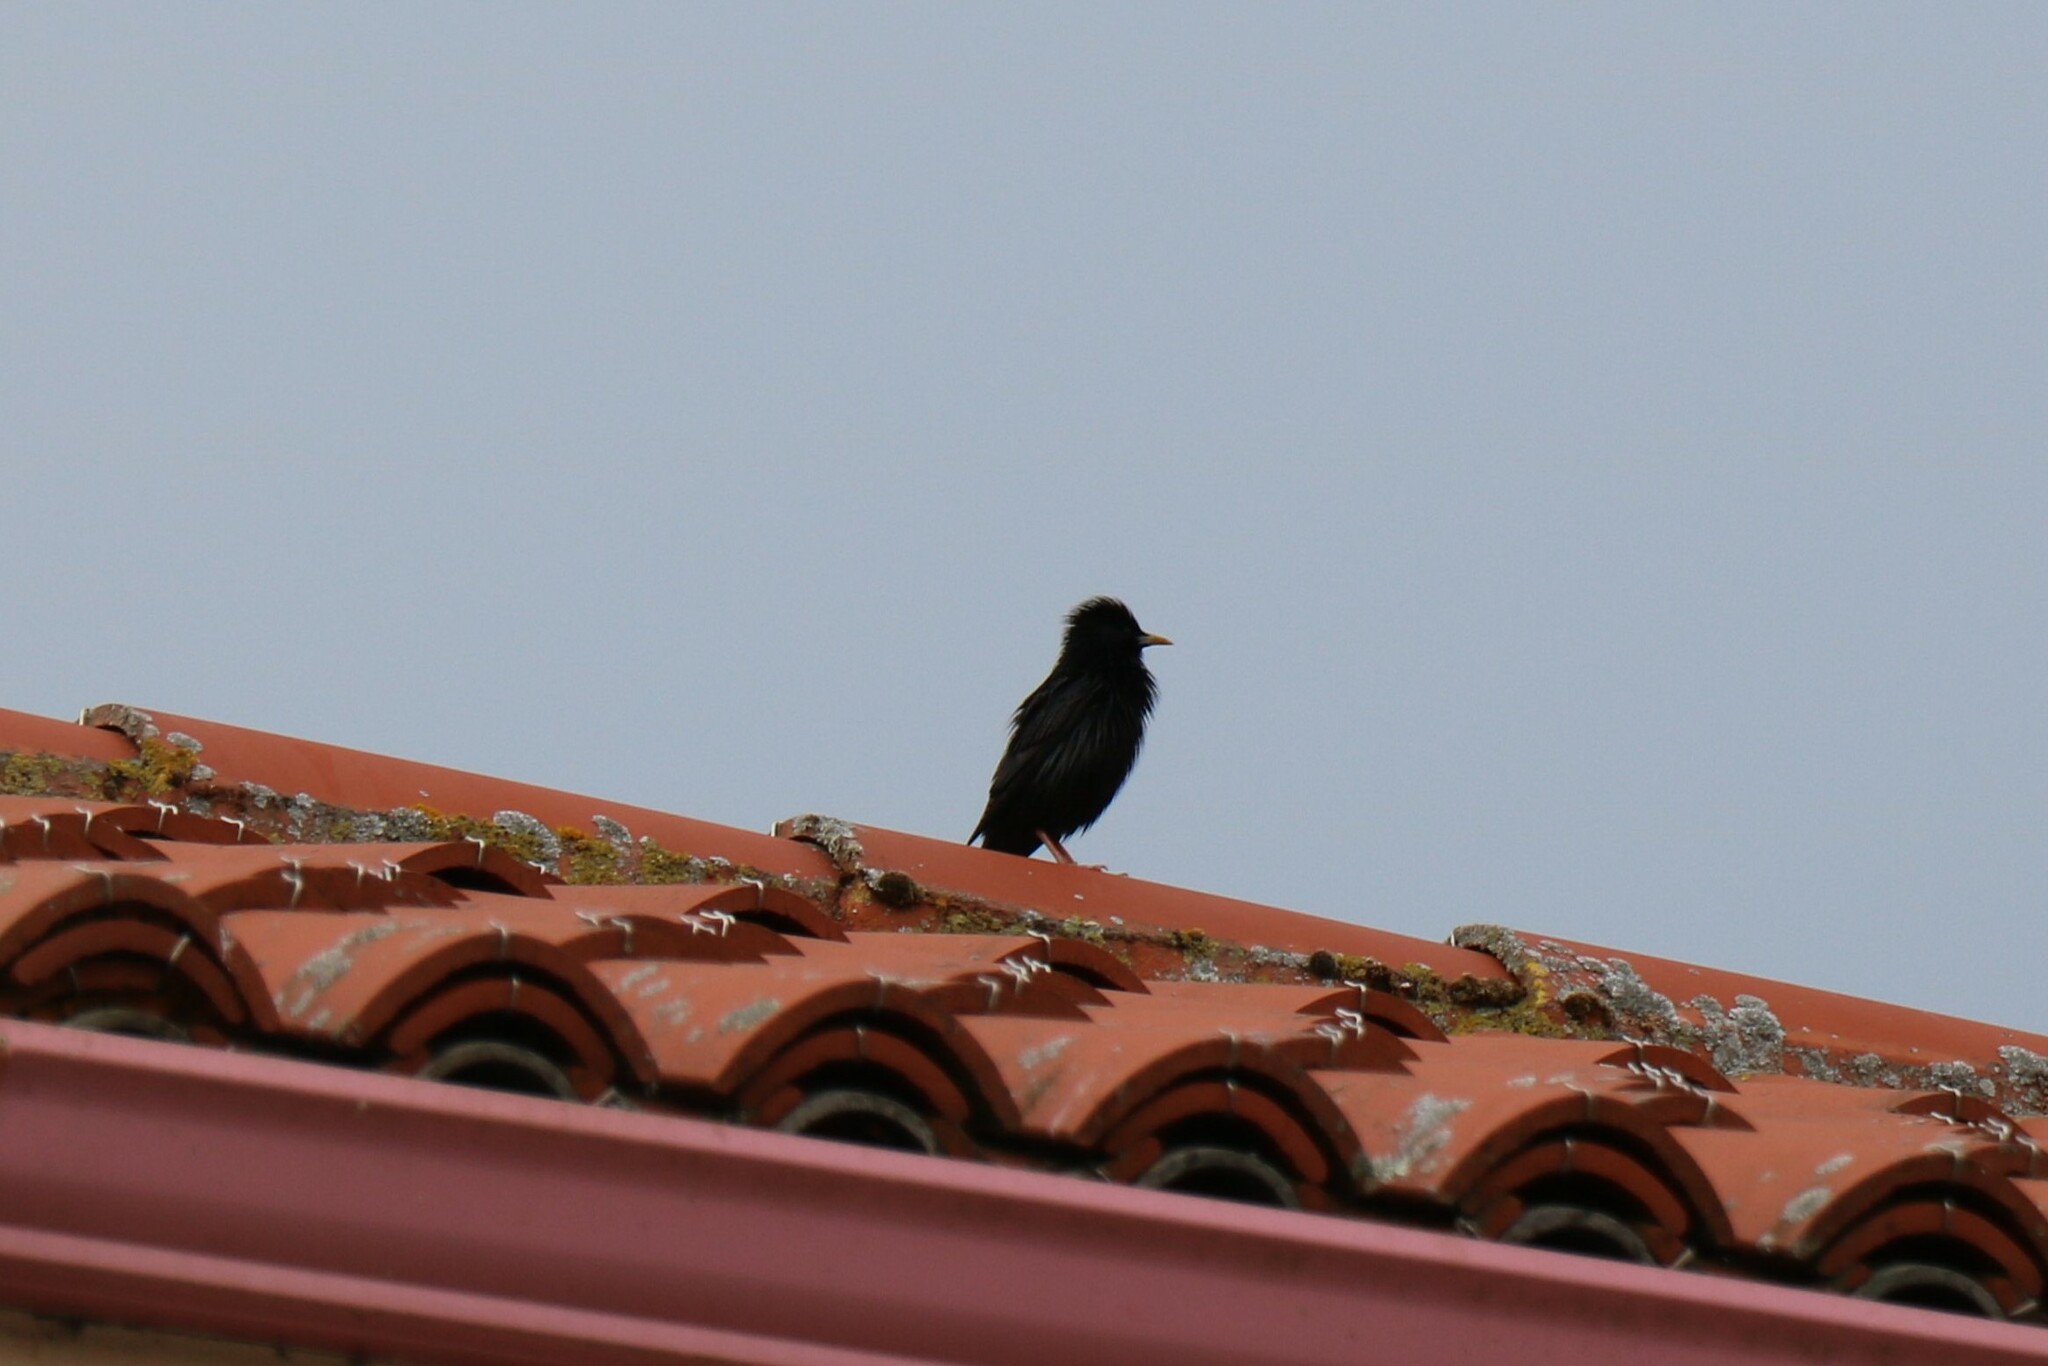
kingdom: Animalia
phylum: Chordata
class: Aves
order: Passeriformes
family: Sturnidae
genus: Sturnus
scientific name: Sturnus unicolor
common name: Spotless starling
